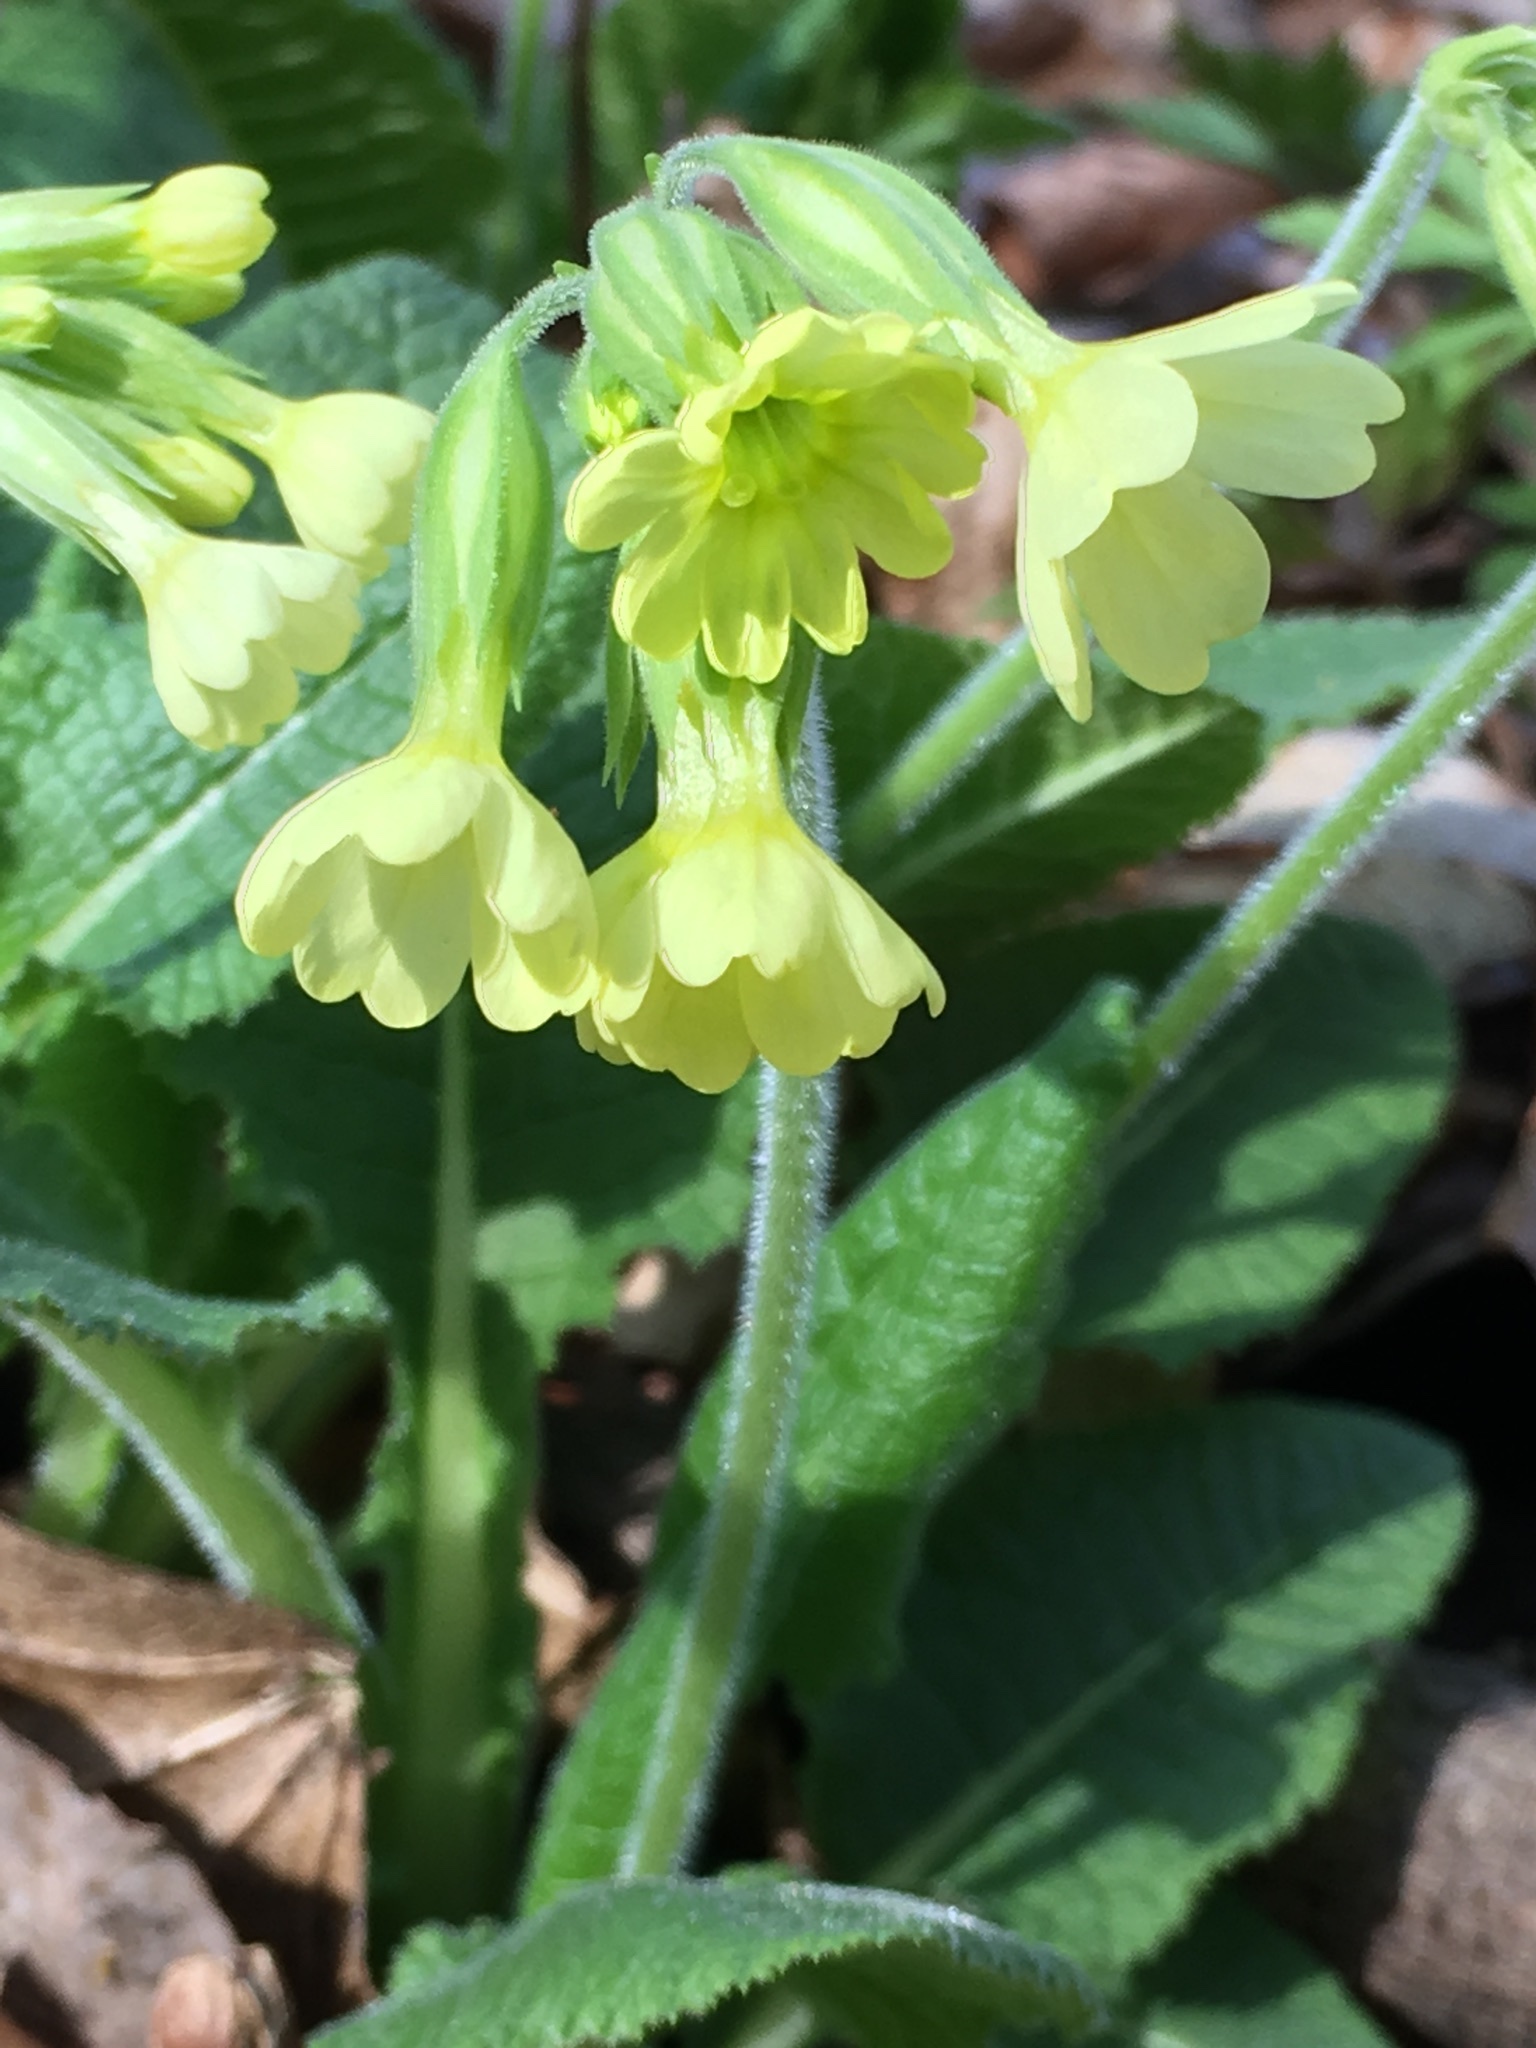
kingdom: Plantae
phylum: Tracheophyta
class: Magnoliopsida
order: Ericales
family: Primulaceae
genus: Primula
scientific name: Primula elatior
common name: Oxlip
